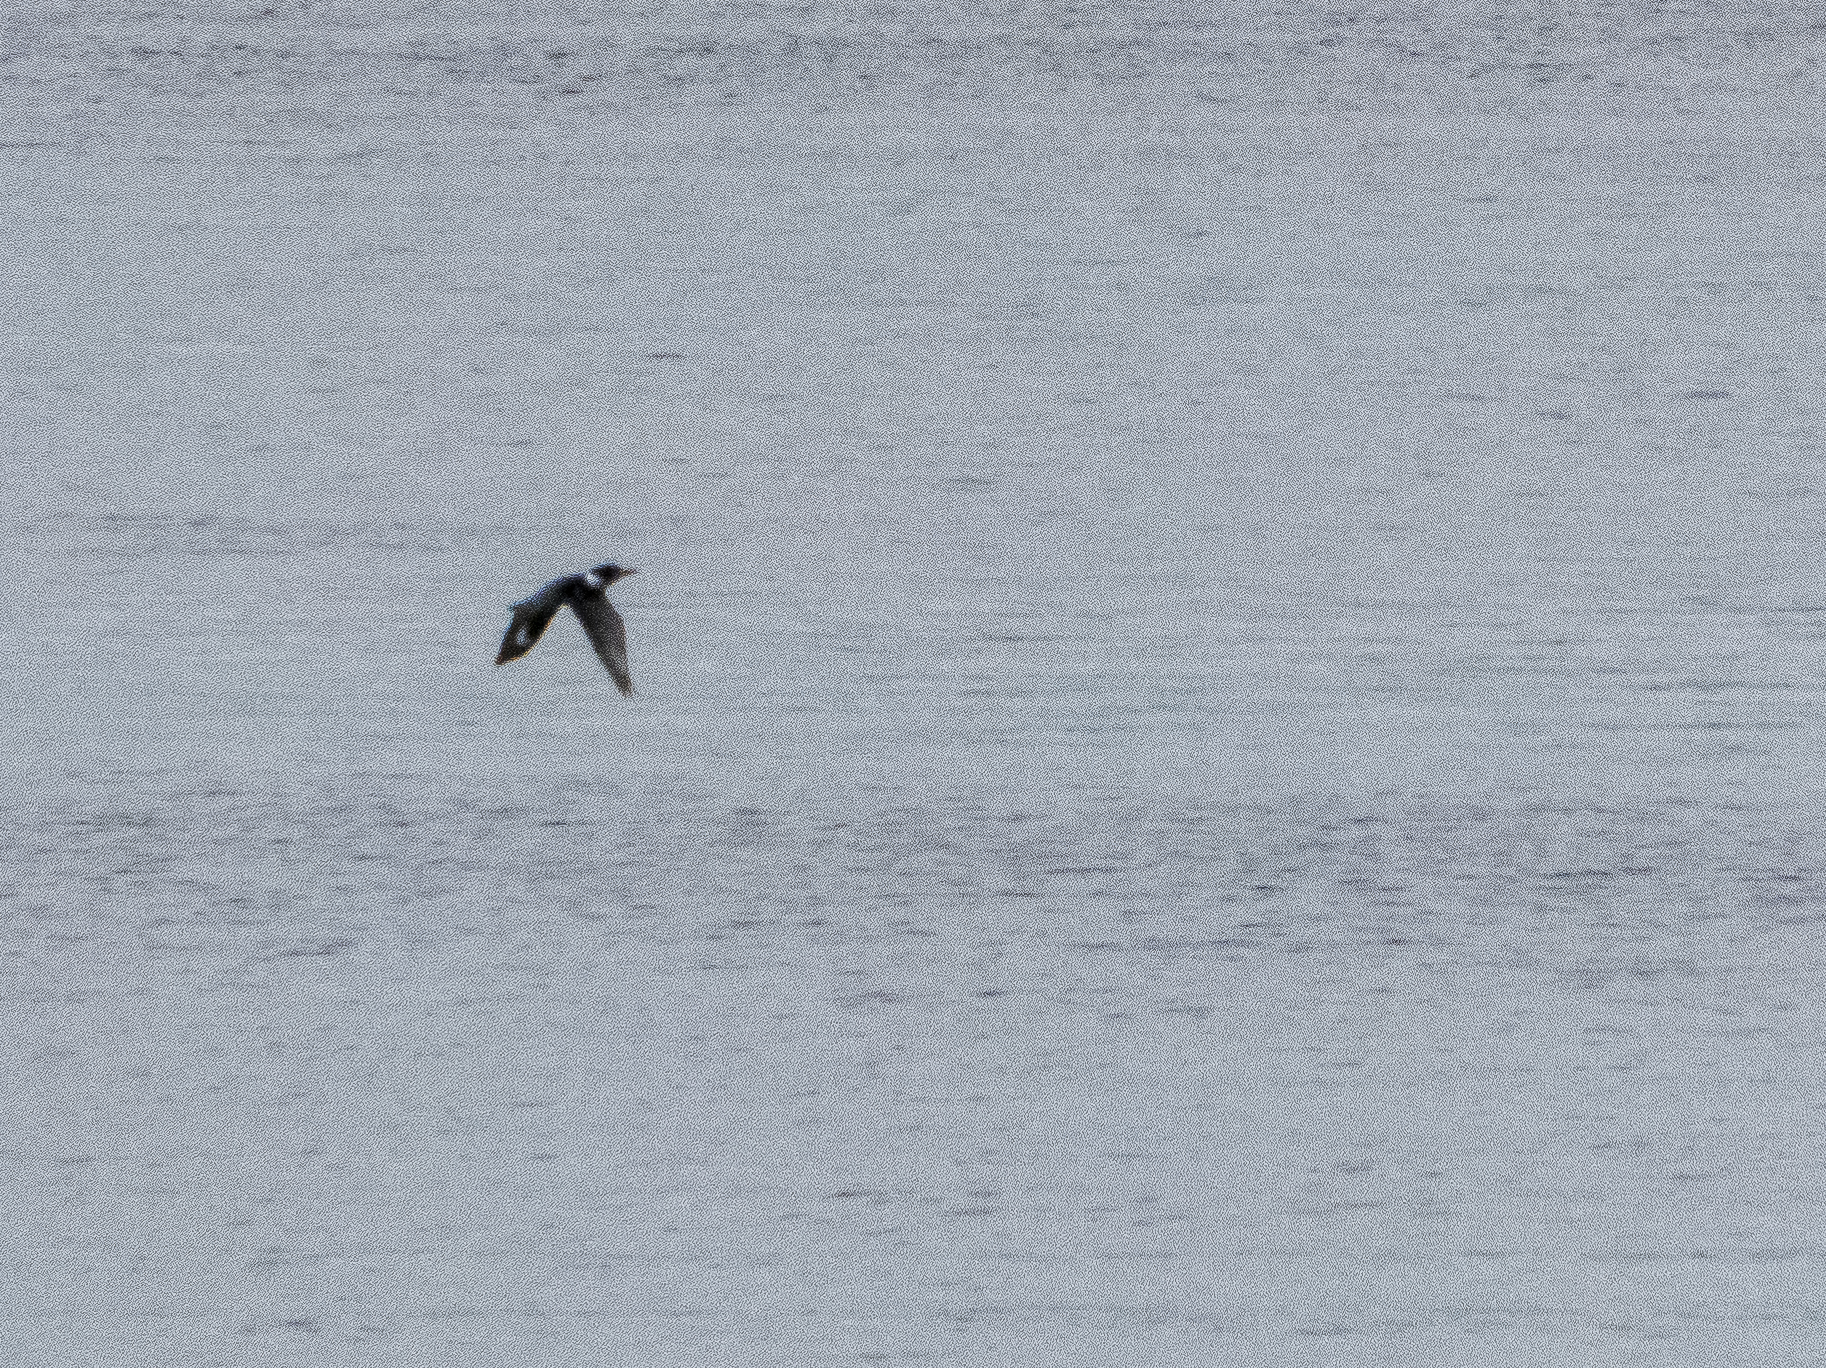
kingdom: Animalia
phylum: Chordata
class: Aves
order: Coraciiformes
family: Alcedinidae
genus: Megaceryle
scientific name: Megaceryle alcyon
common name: Belted kingfisher
